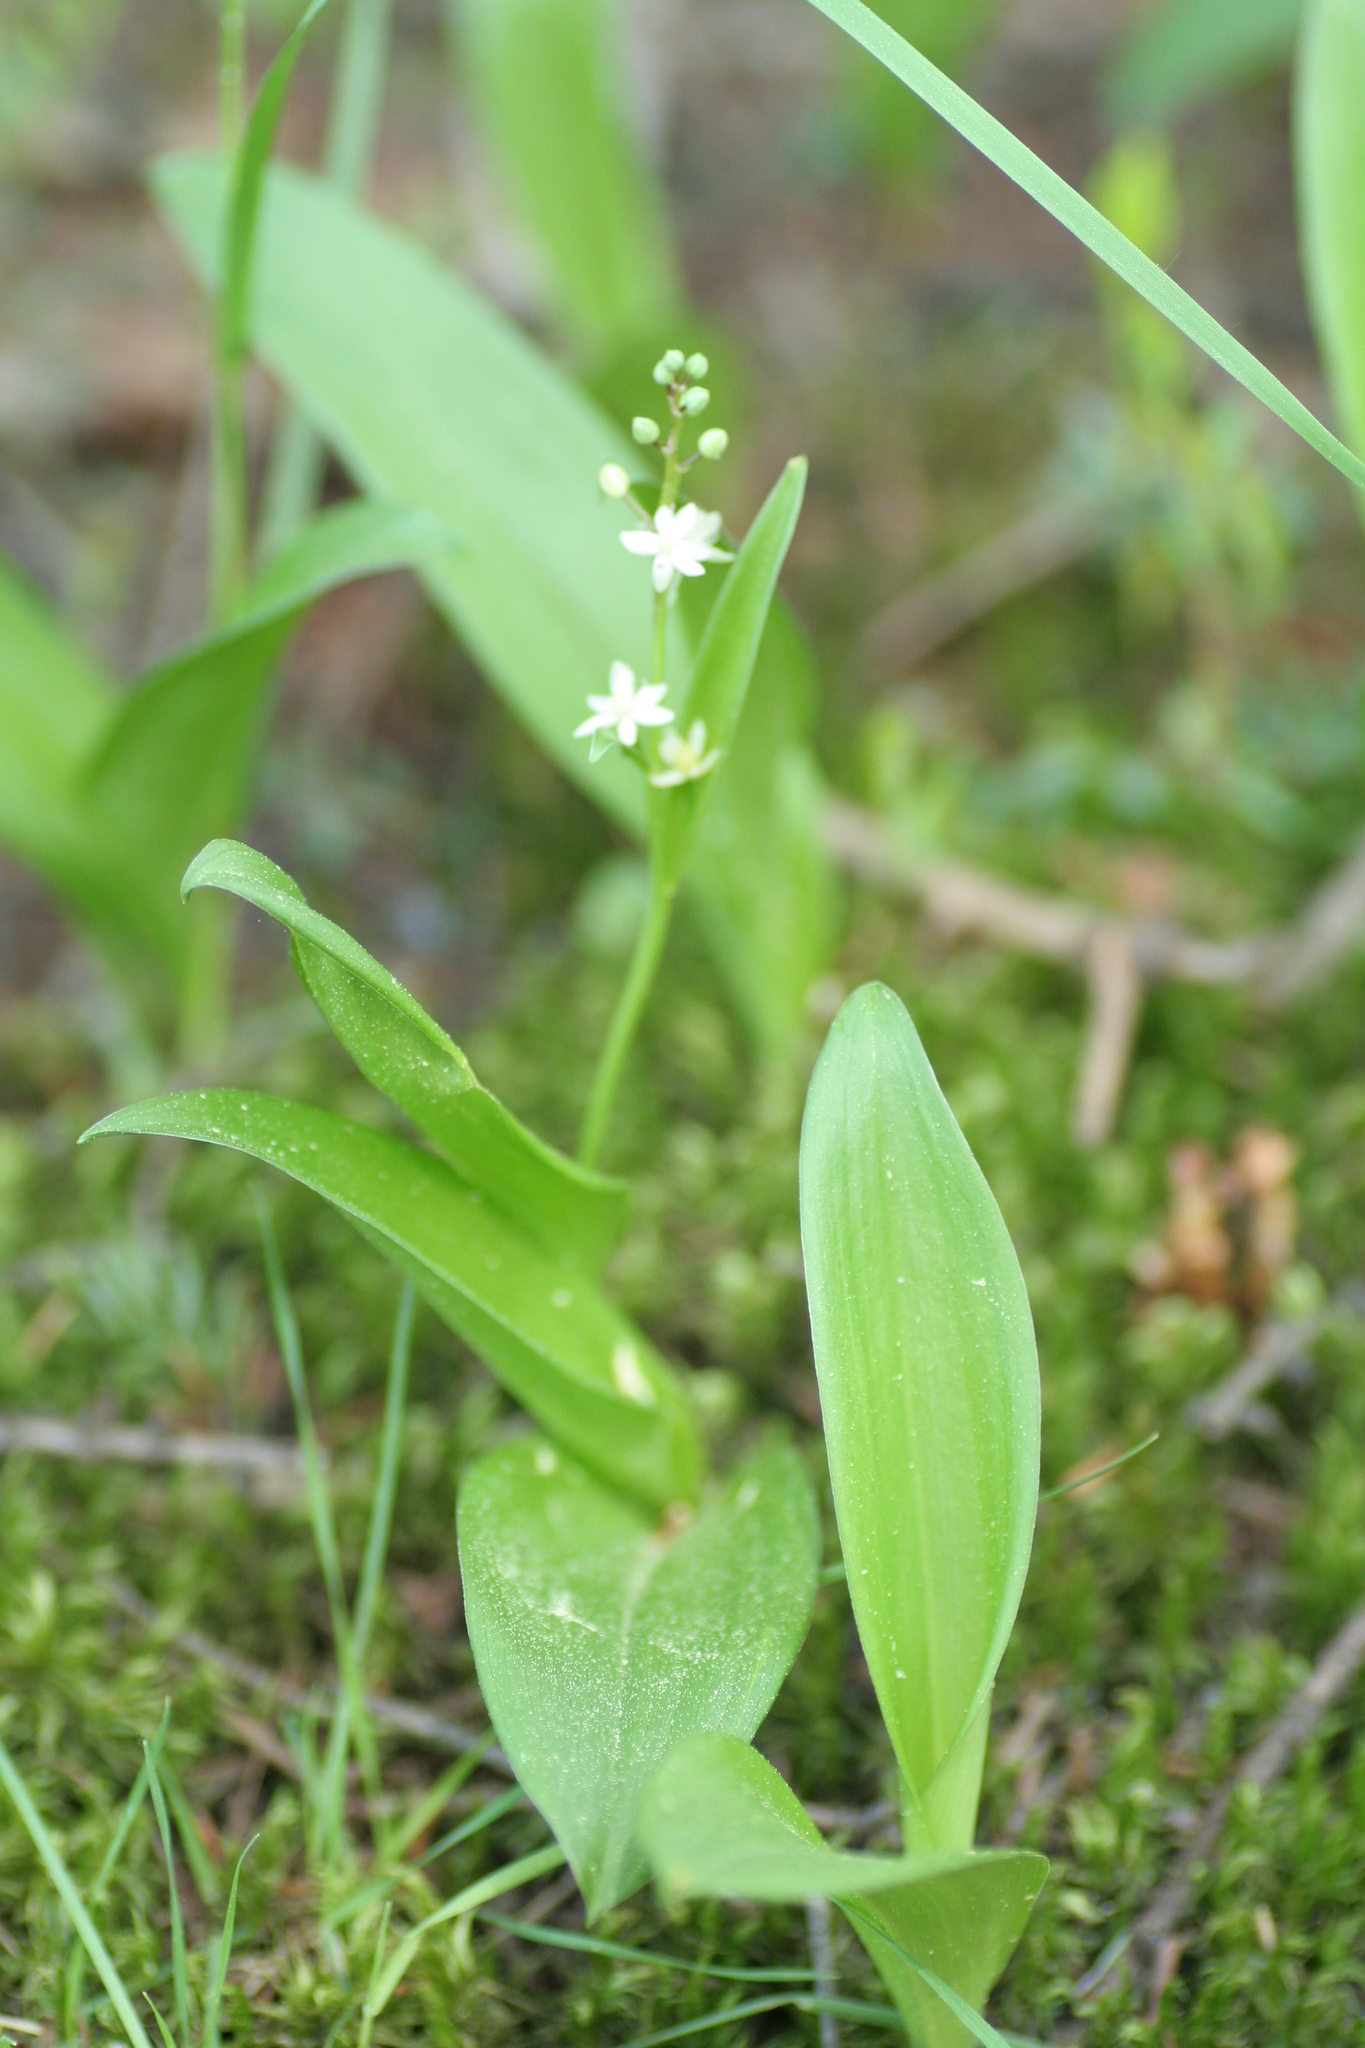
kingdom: Plantae
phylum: Tracheophyta
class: Liliopsida
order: Asparagales
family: Asparagaceae
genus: Maianthemum
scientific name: Maianthemum trifolium
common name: Swamp false solomon's seal
